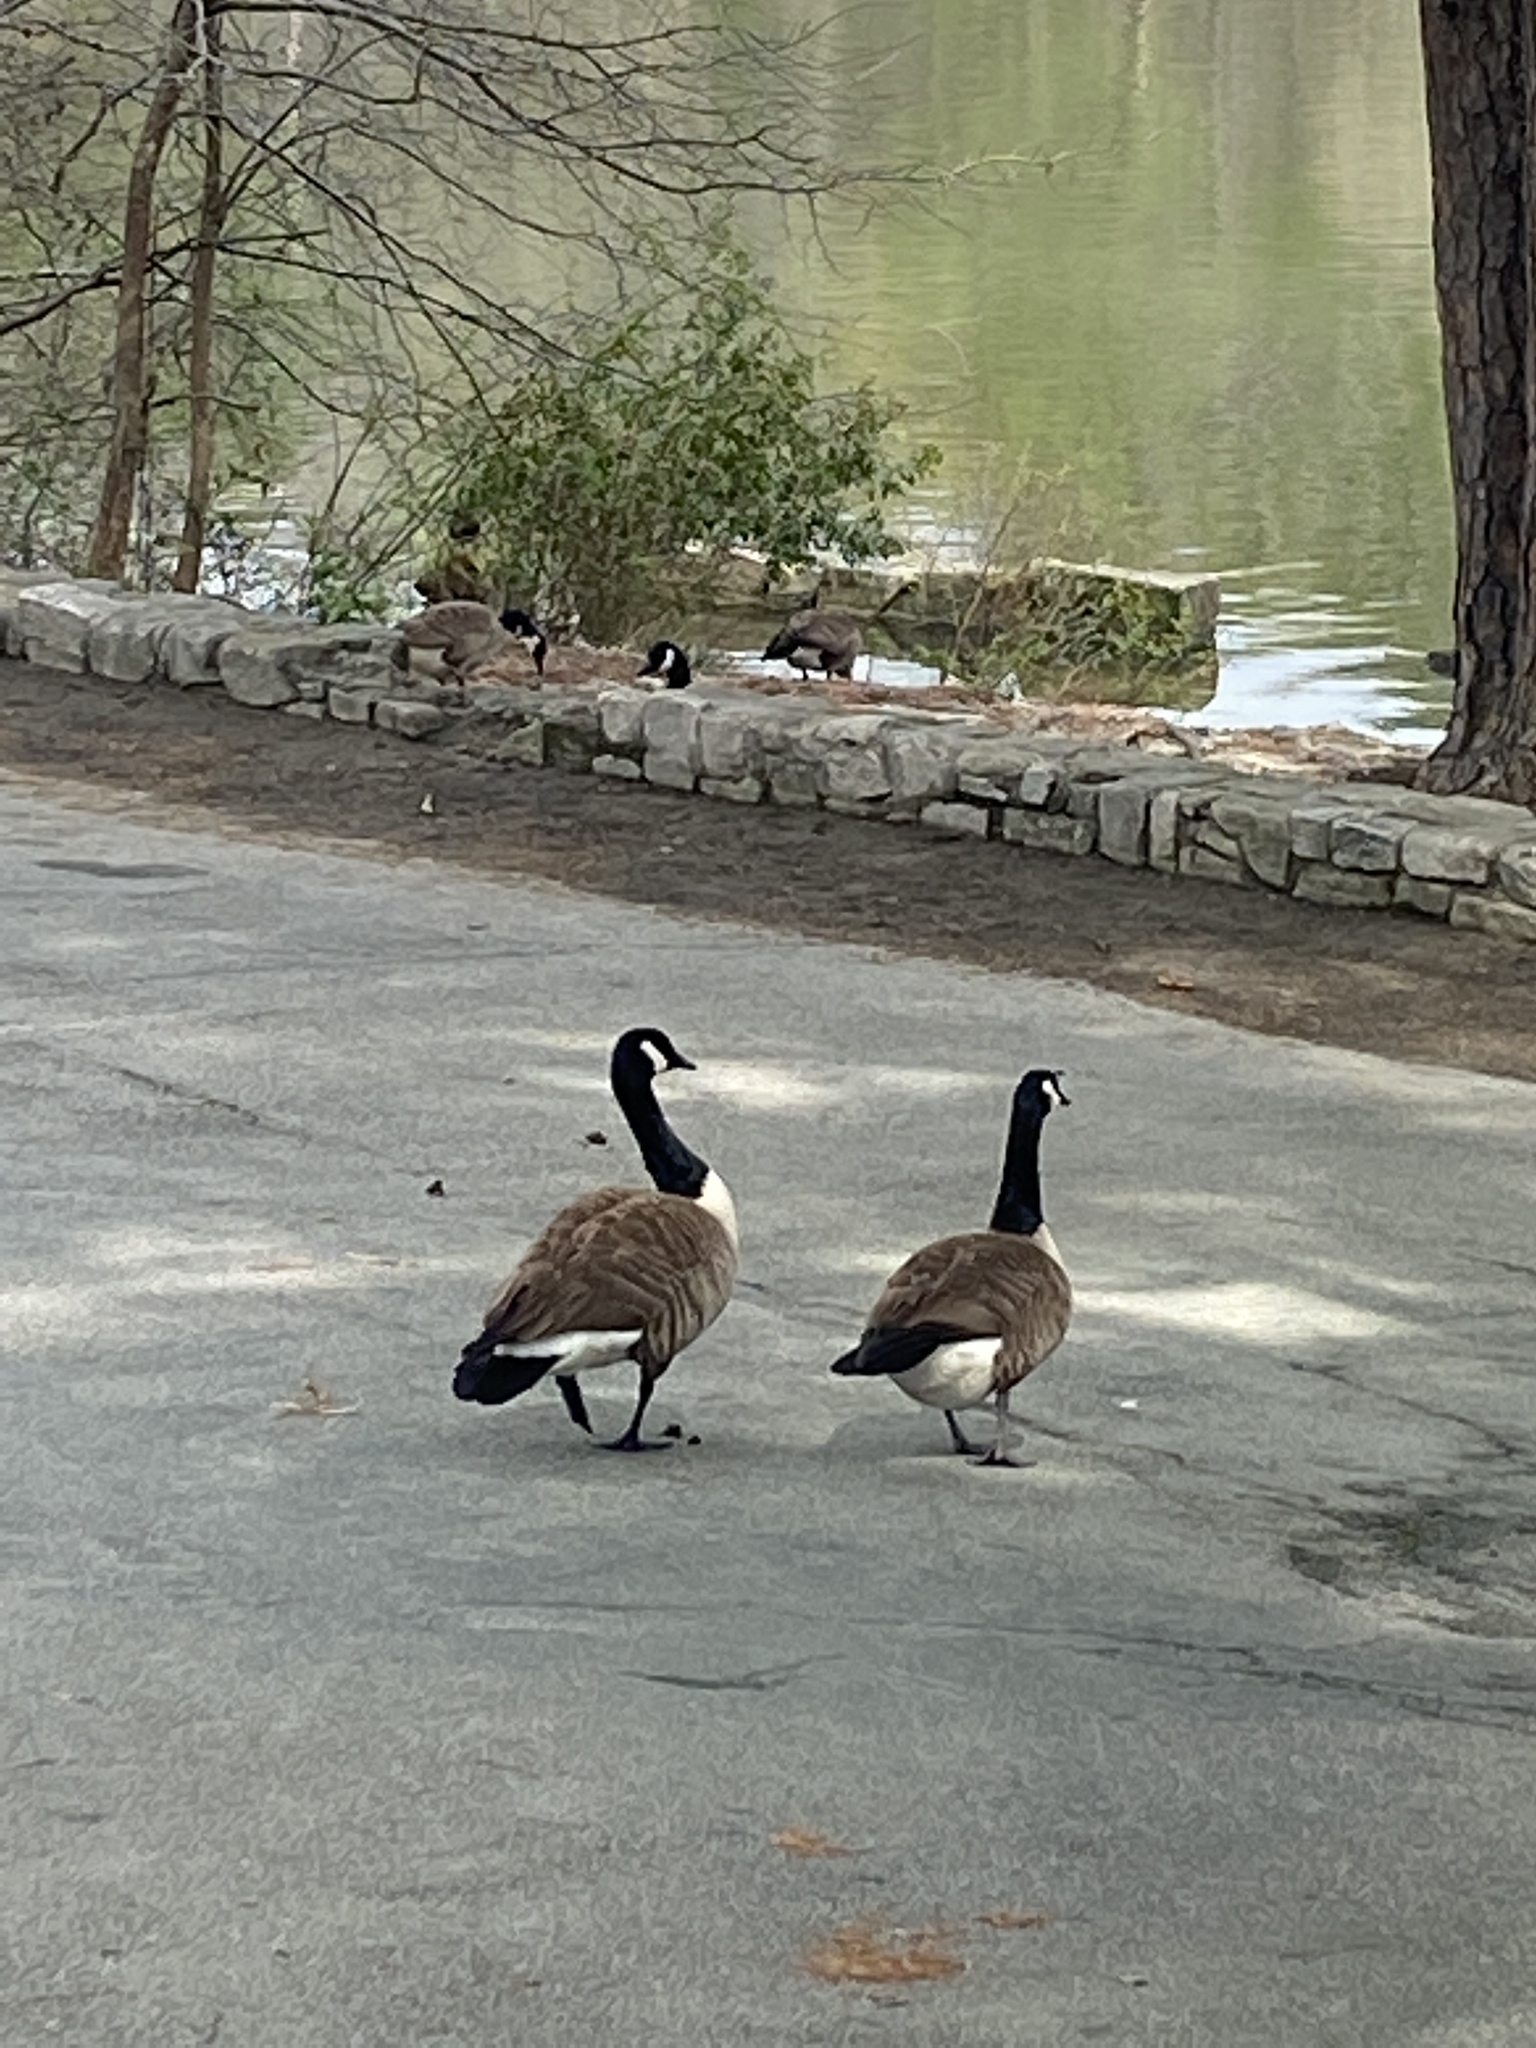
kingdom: Animalia
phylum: Chordata
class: Aves
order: Anseriformes
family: Anatidae
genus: Branta
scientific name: Branta canadensis
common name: Canada goose
